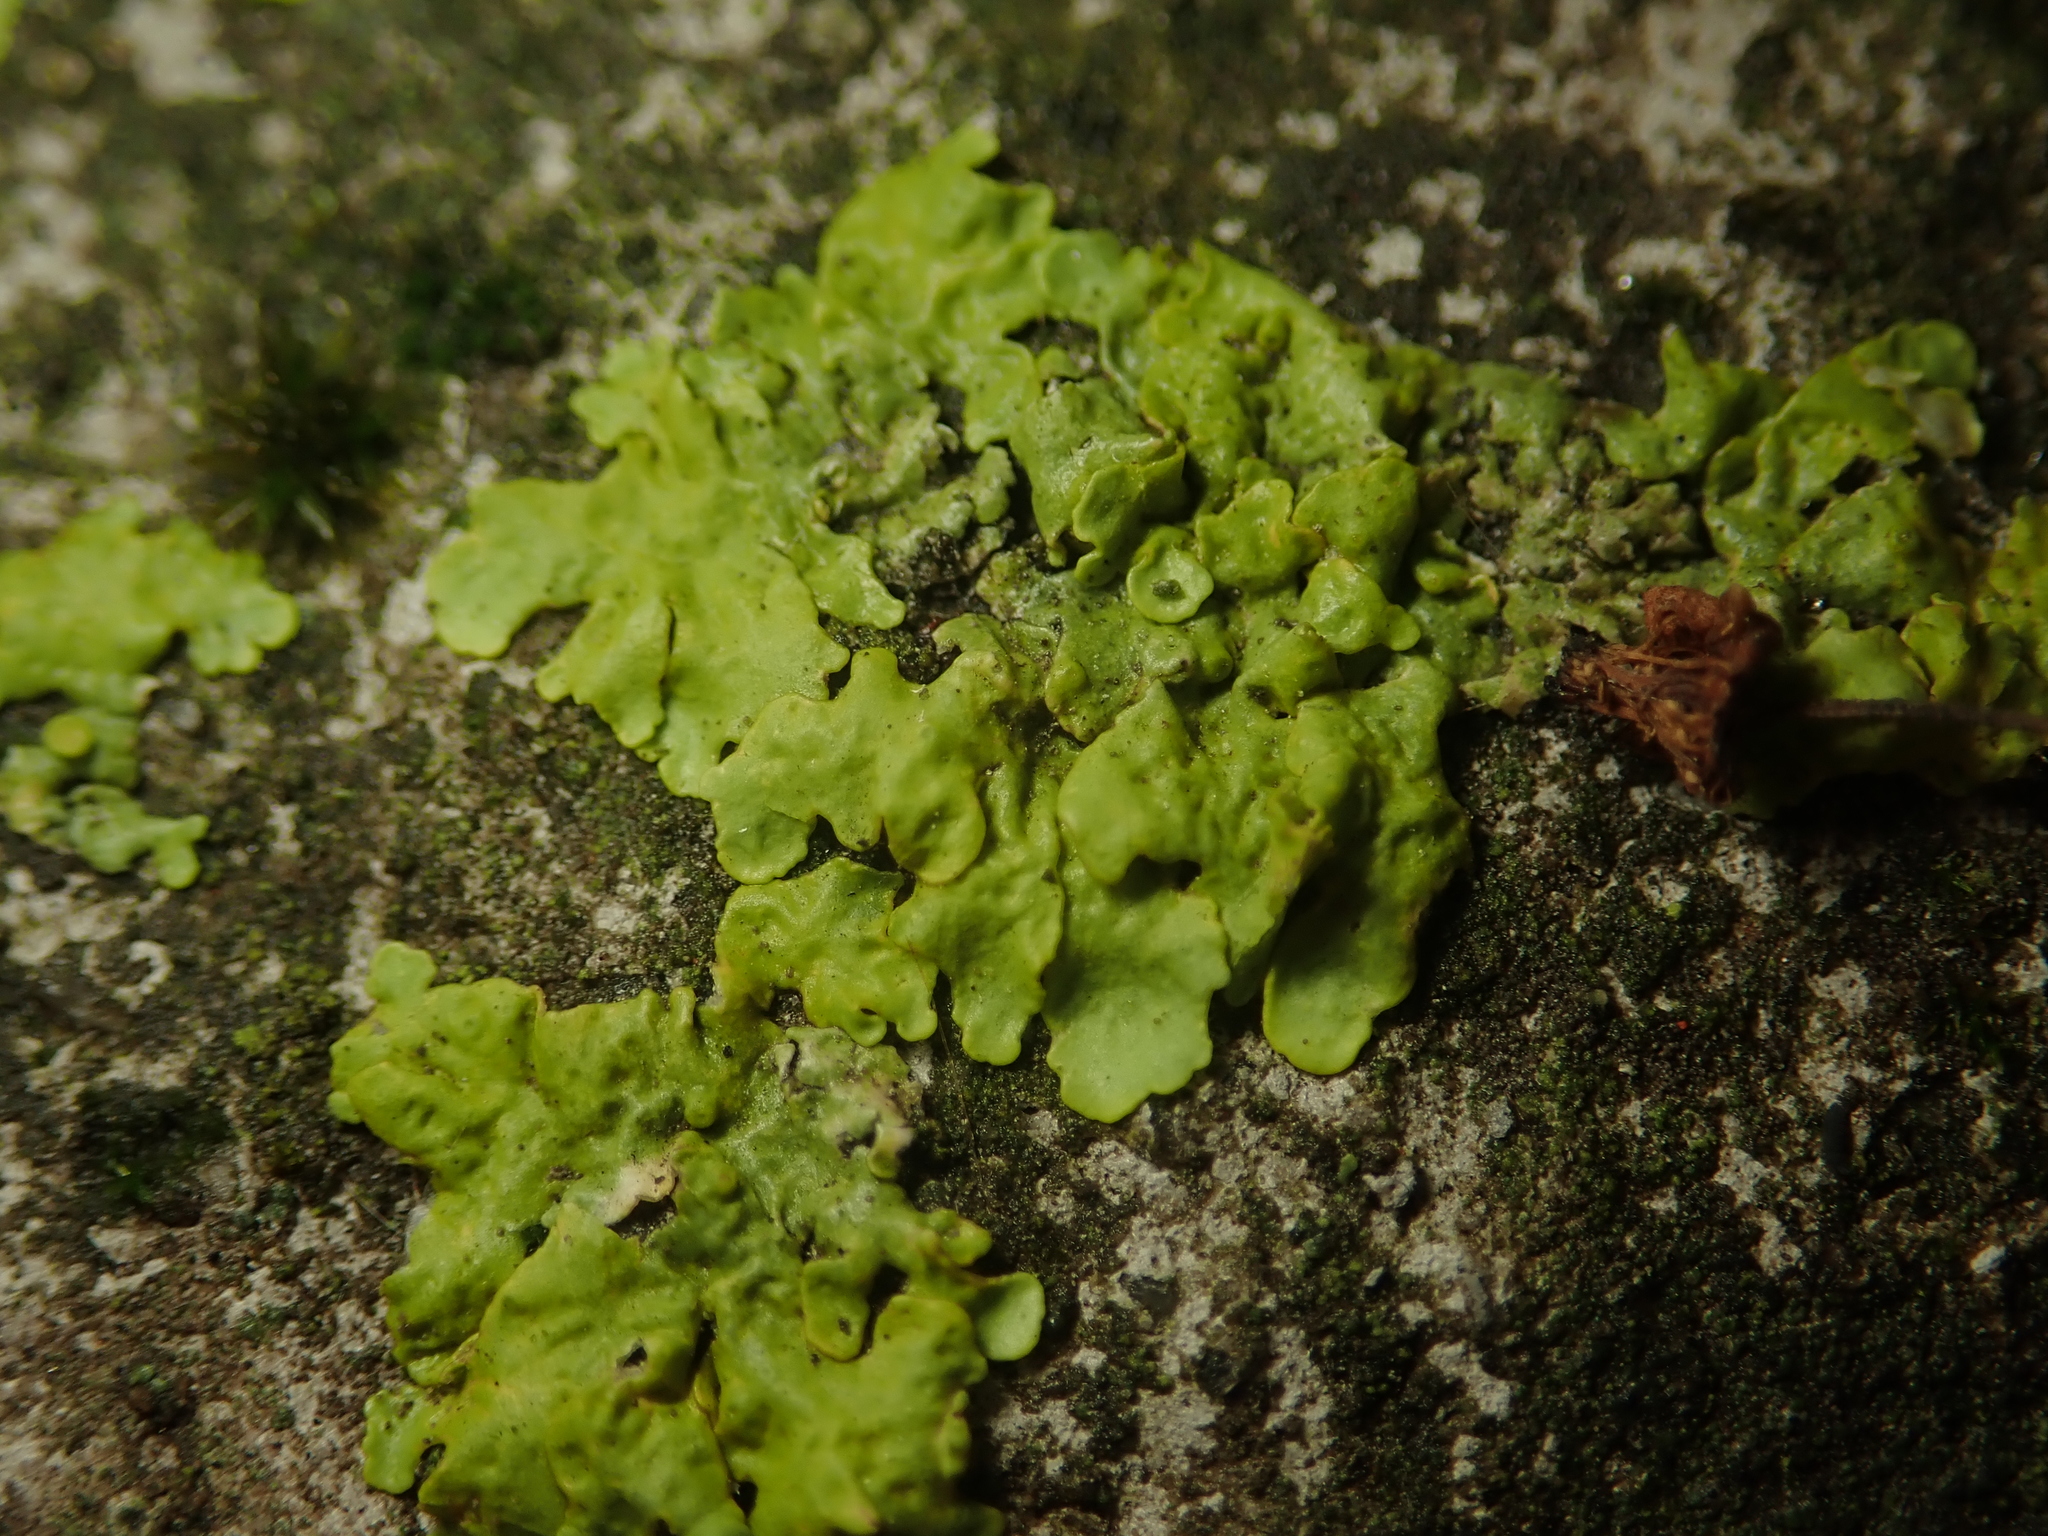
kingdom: Fungi
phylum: Ascomycota
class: Lecanoromycetes
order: Teloschistales
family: Teloschistaceae
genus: Xanthoria
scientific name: Xanthoria parietina
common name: Common orange lichen
